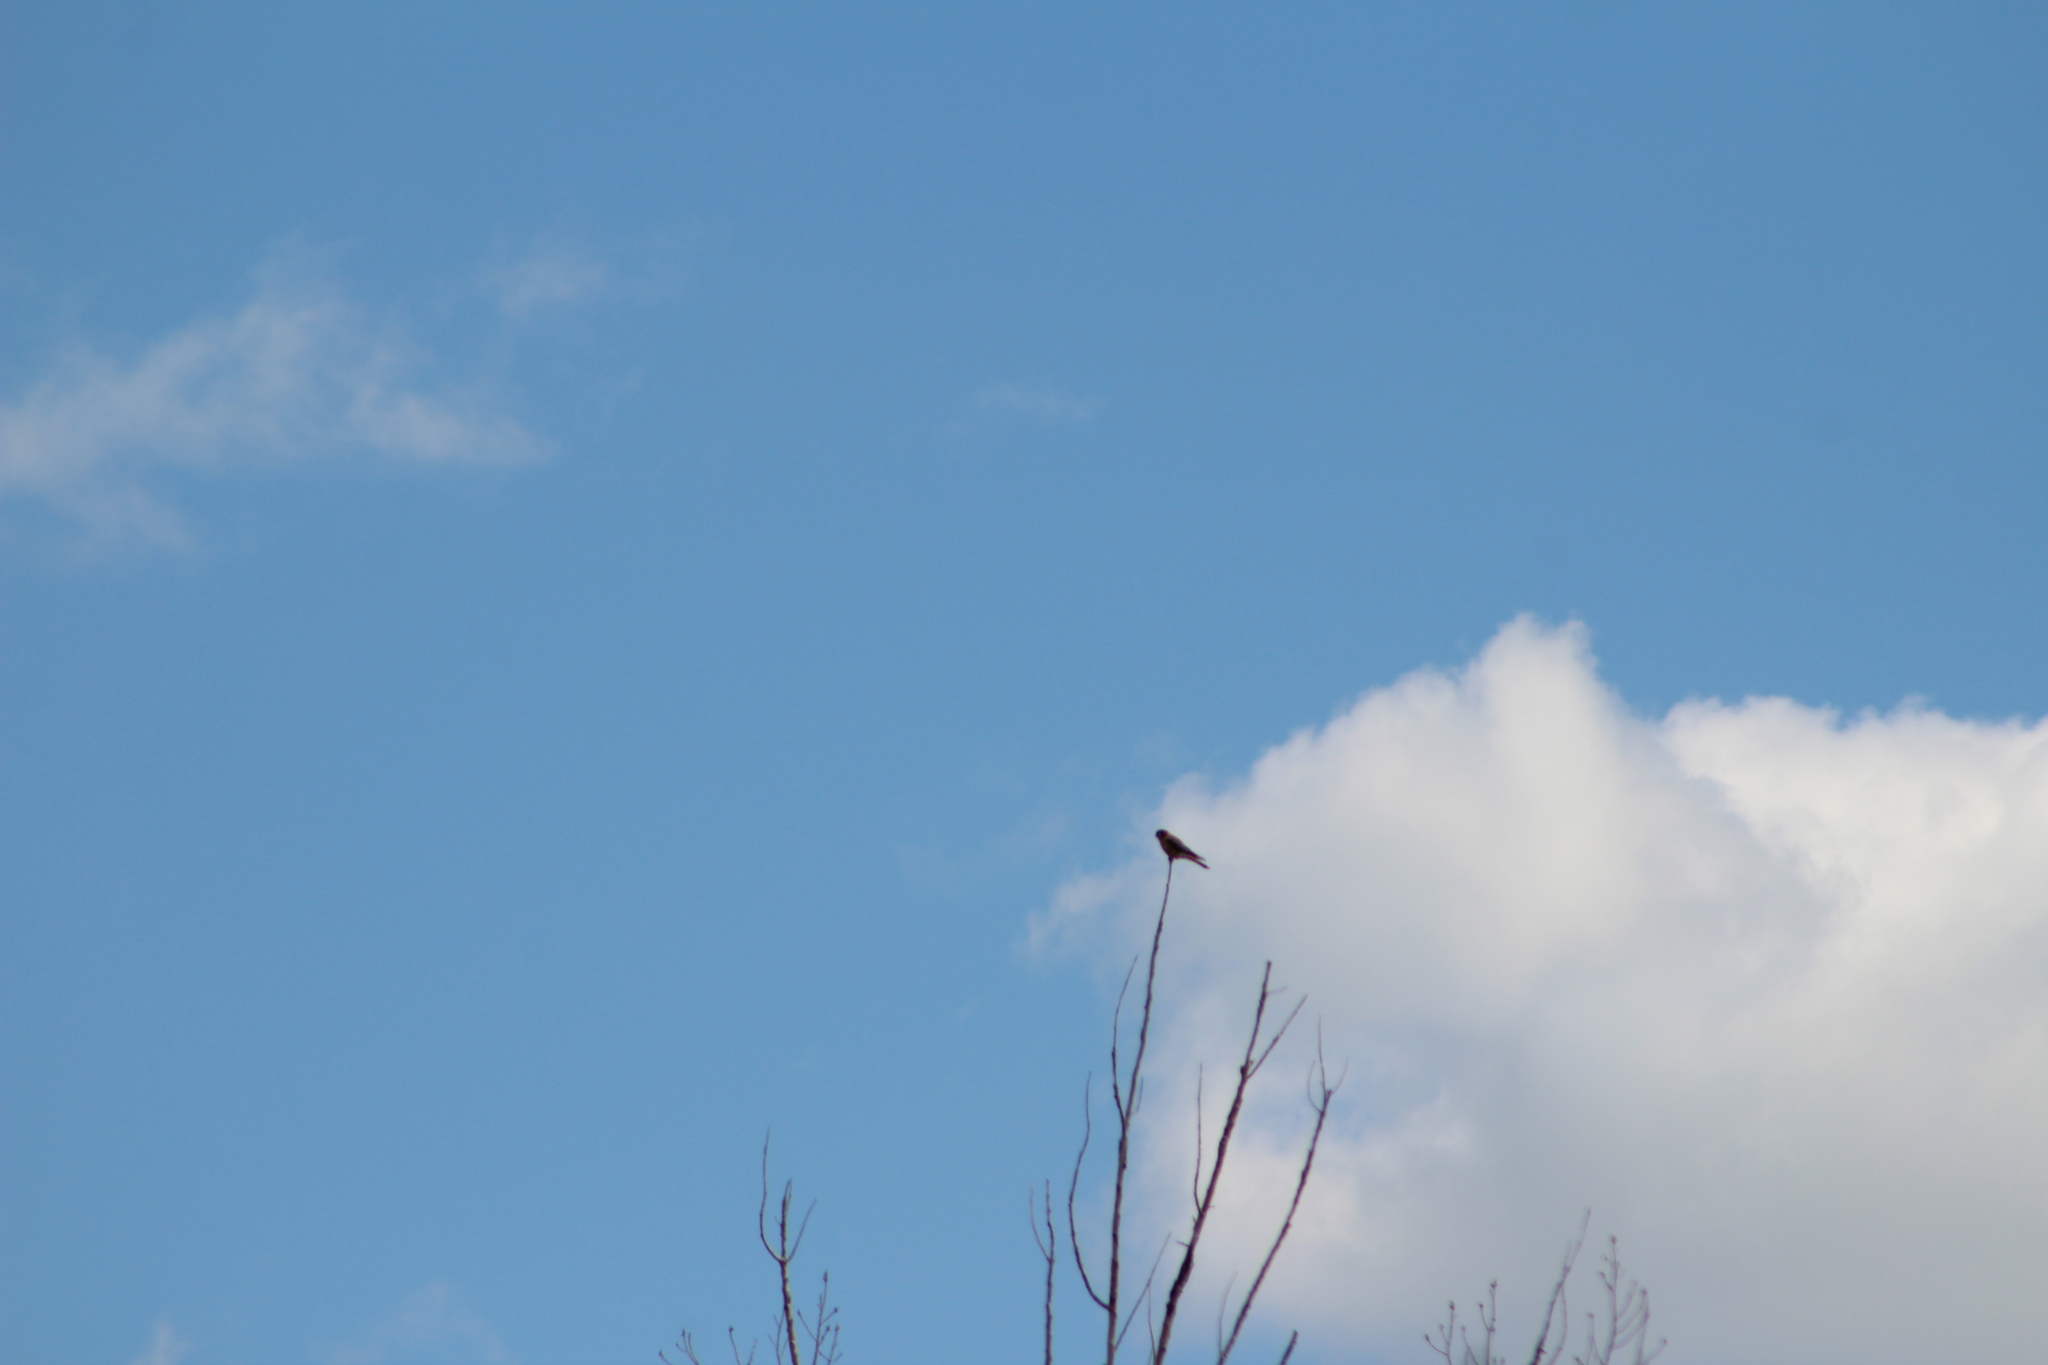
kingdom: Animalia
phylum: Chordata
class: Aves
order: Falconiformes
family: Falconidae
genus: Falco
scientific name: Falco sparverius
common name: American kestrel
